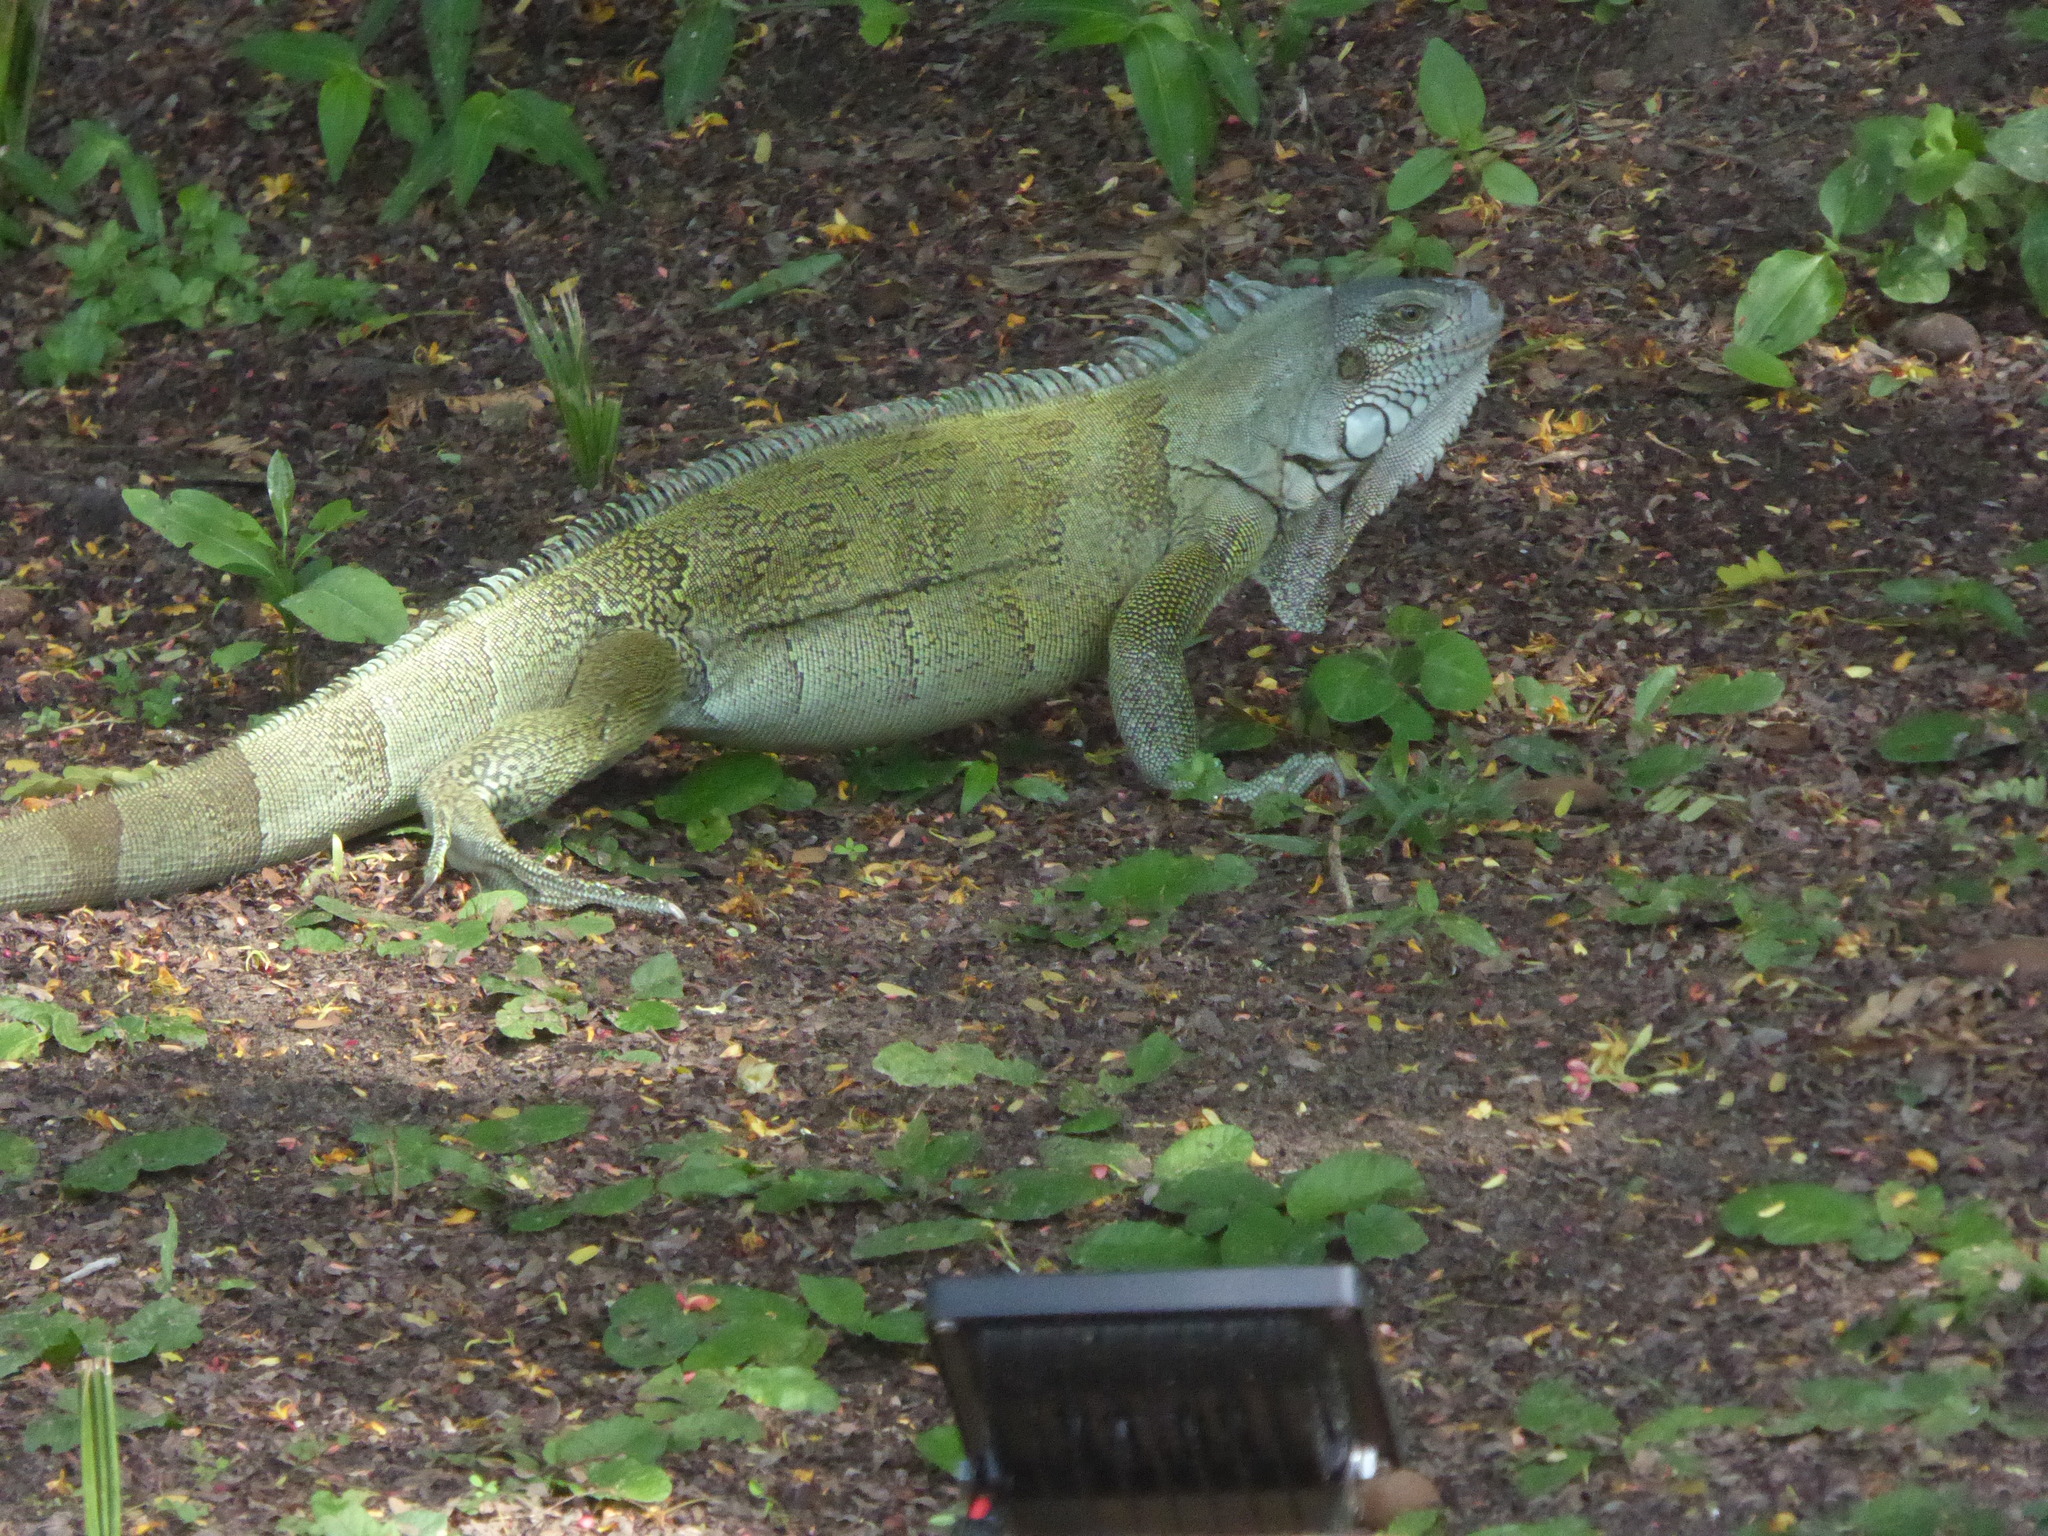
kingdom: Animalia
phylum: Chordata
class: Squamata
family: Iguanidae
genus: Iguana
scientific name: Iguana iguana
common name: Green iguana
